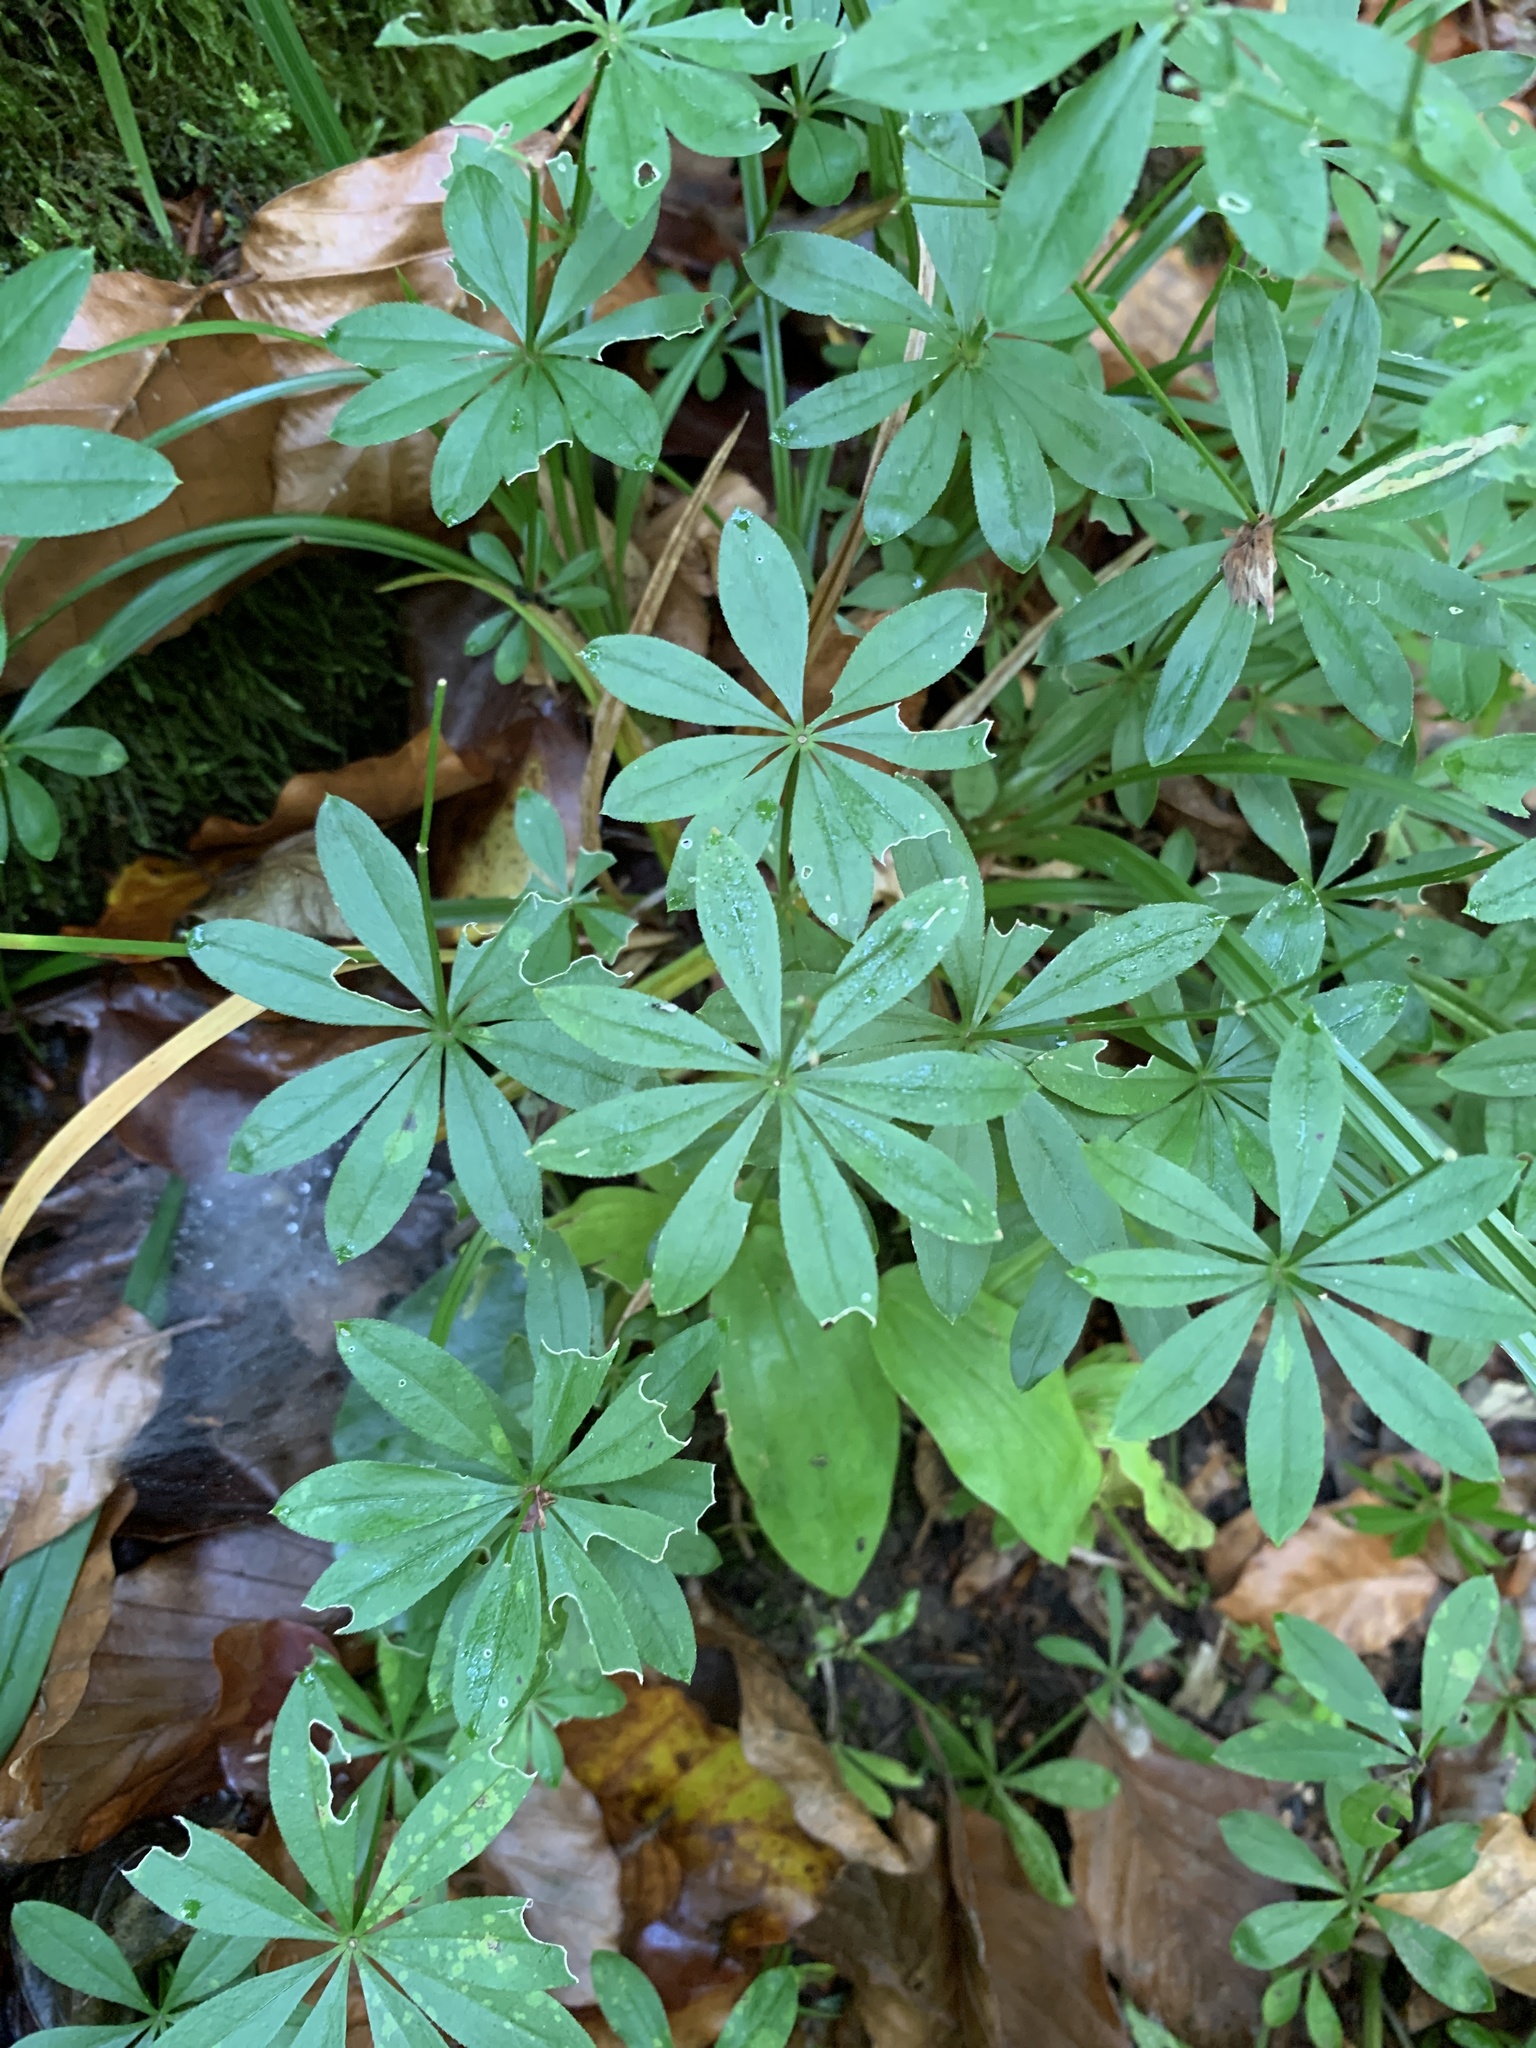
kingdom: Plantae
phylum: Tracheophyta
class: Magnoliopsida
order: Gentianales
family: Rubiaceae
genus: Galium
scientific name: Galium odoratum
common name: Sweet woodruff
